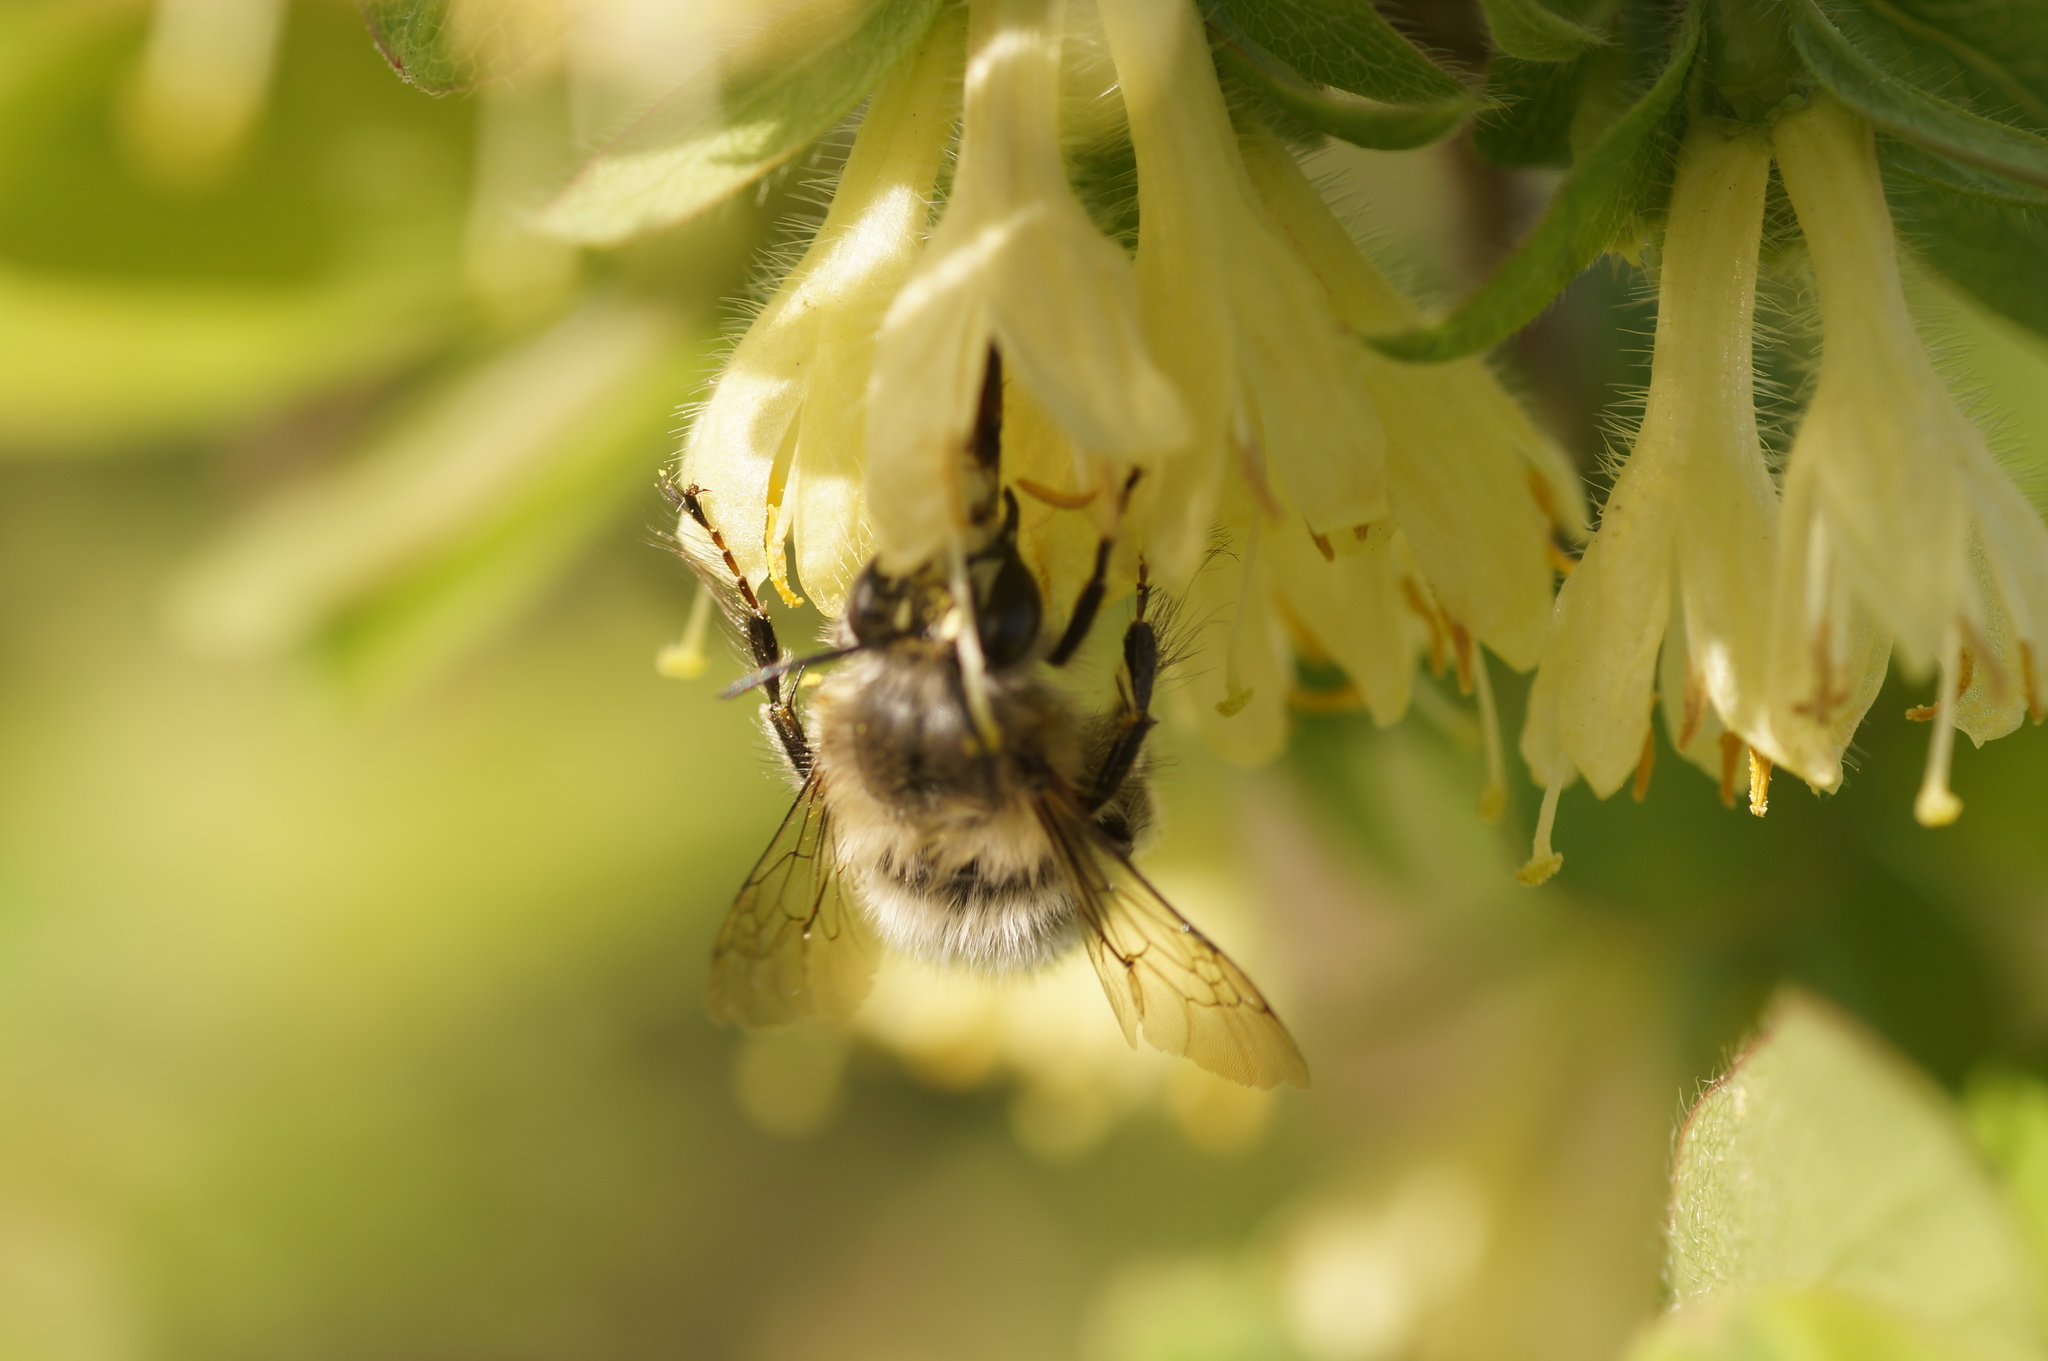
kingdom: Animalia
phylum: Arthropoda
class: Insecta
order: Hymenoptera
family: Apidae
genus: Anthophora
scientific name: Anthophora plumipes
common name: Hairy-footed flower bee
